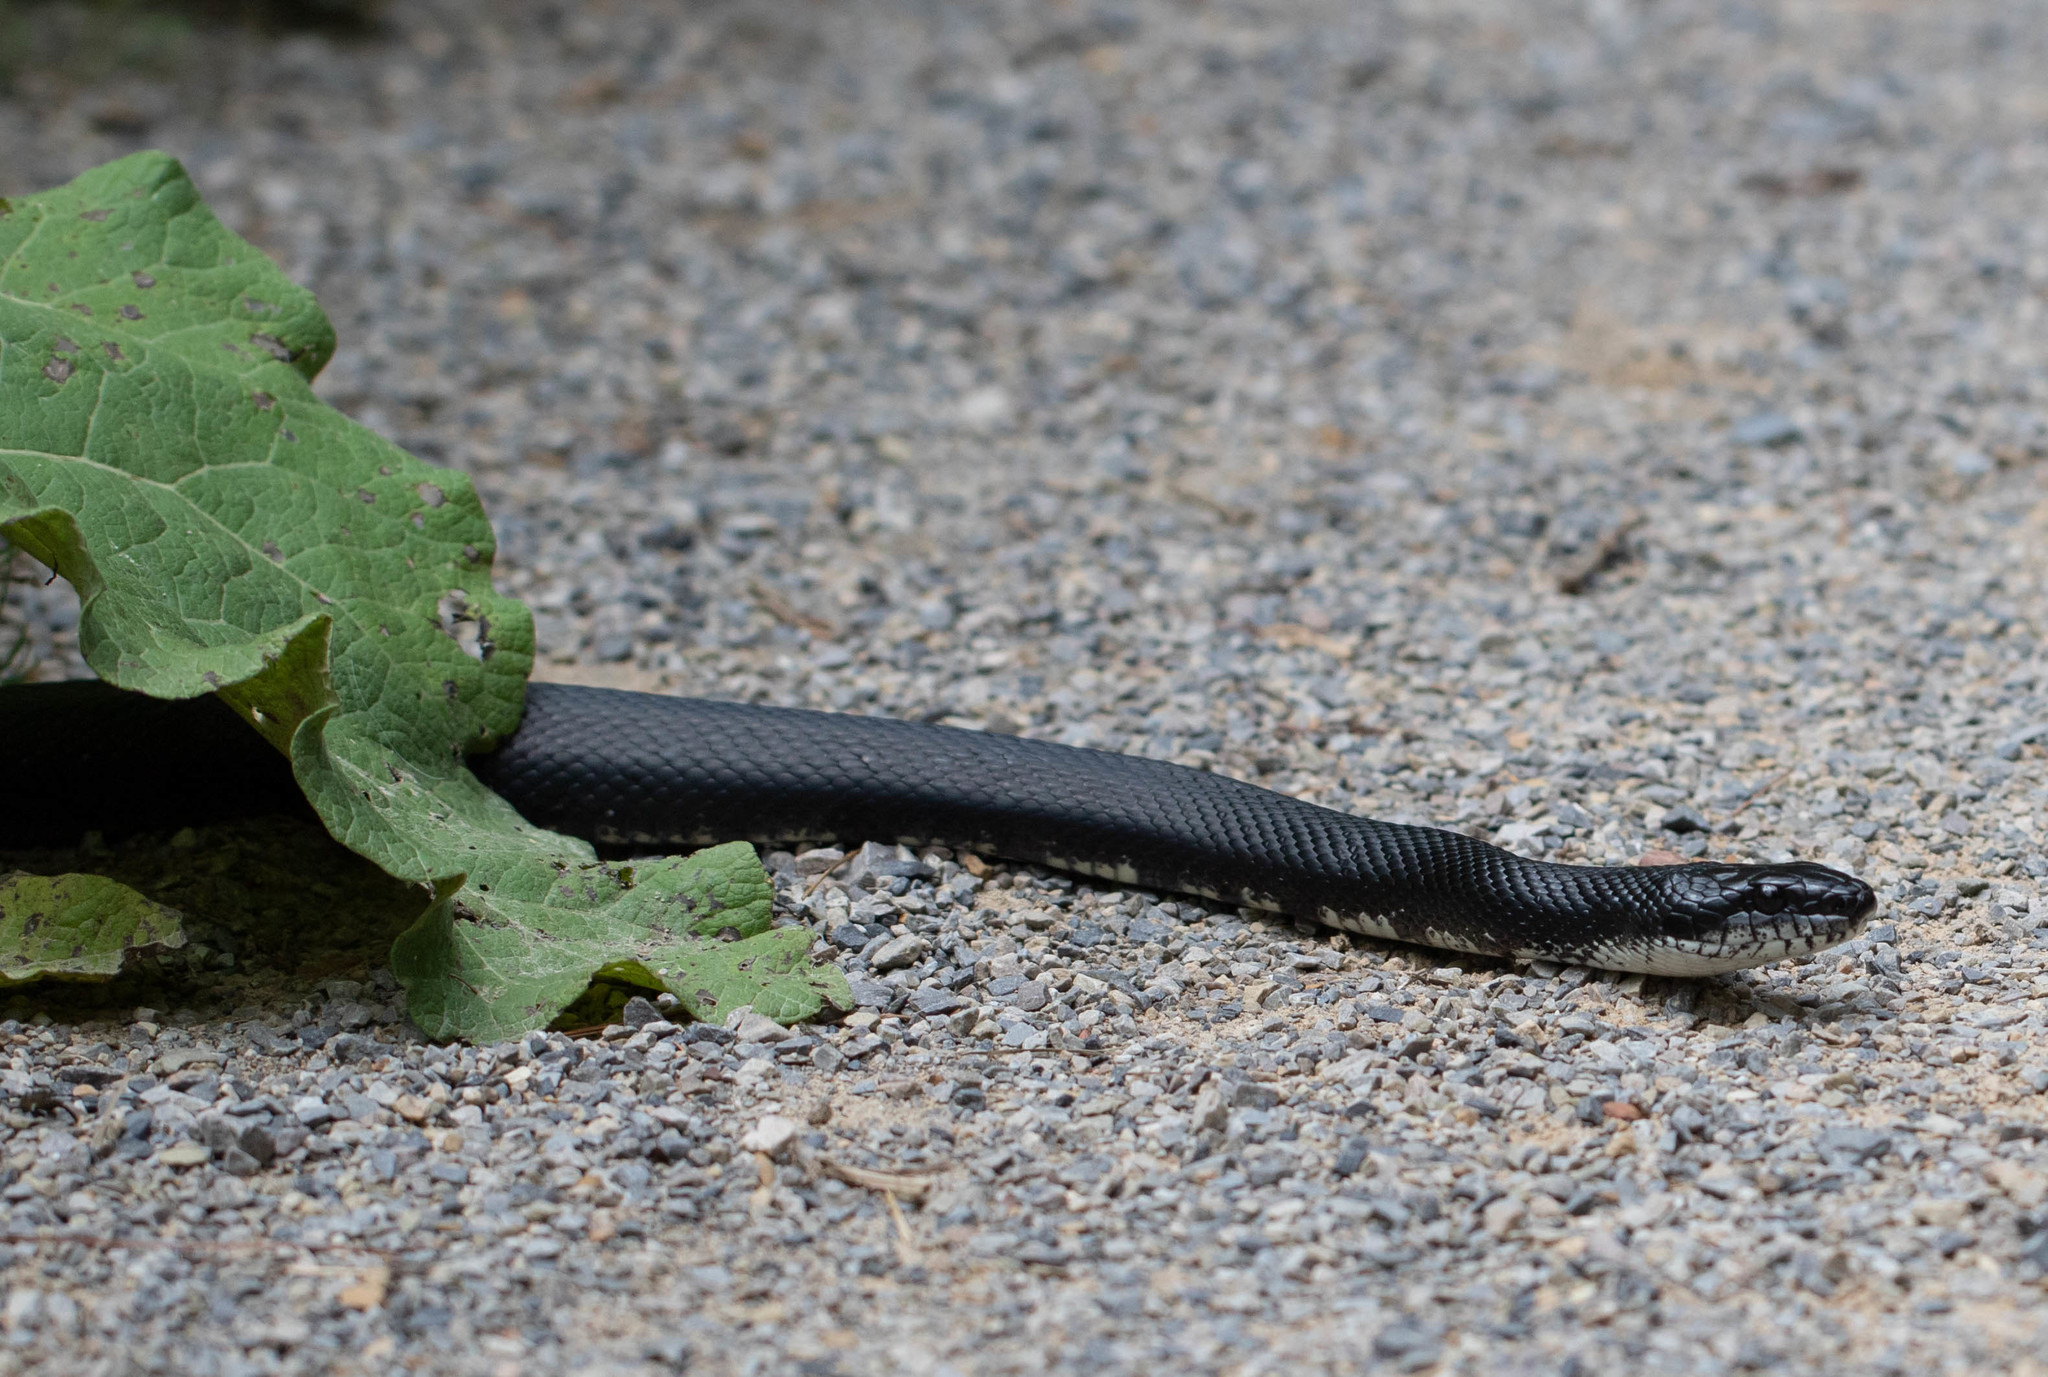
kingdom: Animalia
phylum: Chordata
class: Squamata
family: Colubridae
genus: Pantherophis
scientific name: Pantherophis alleghaniensis
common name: Eastern rat snake
